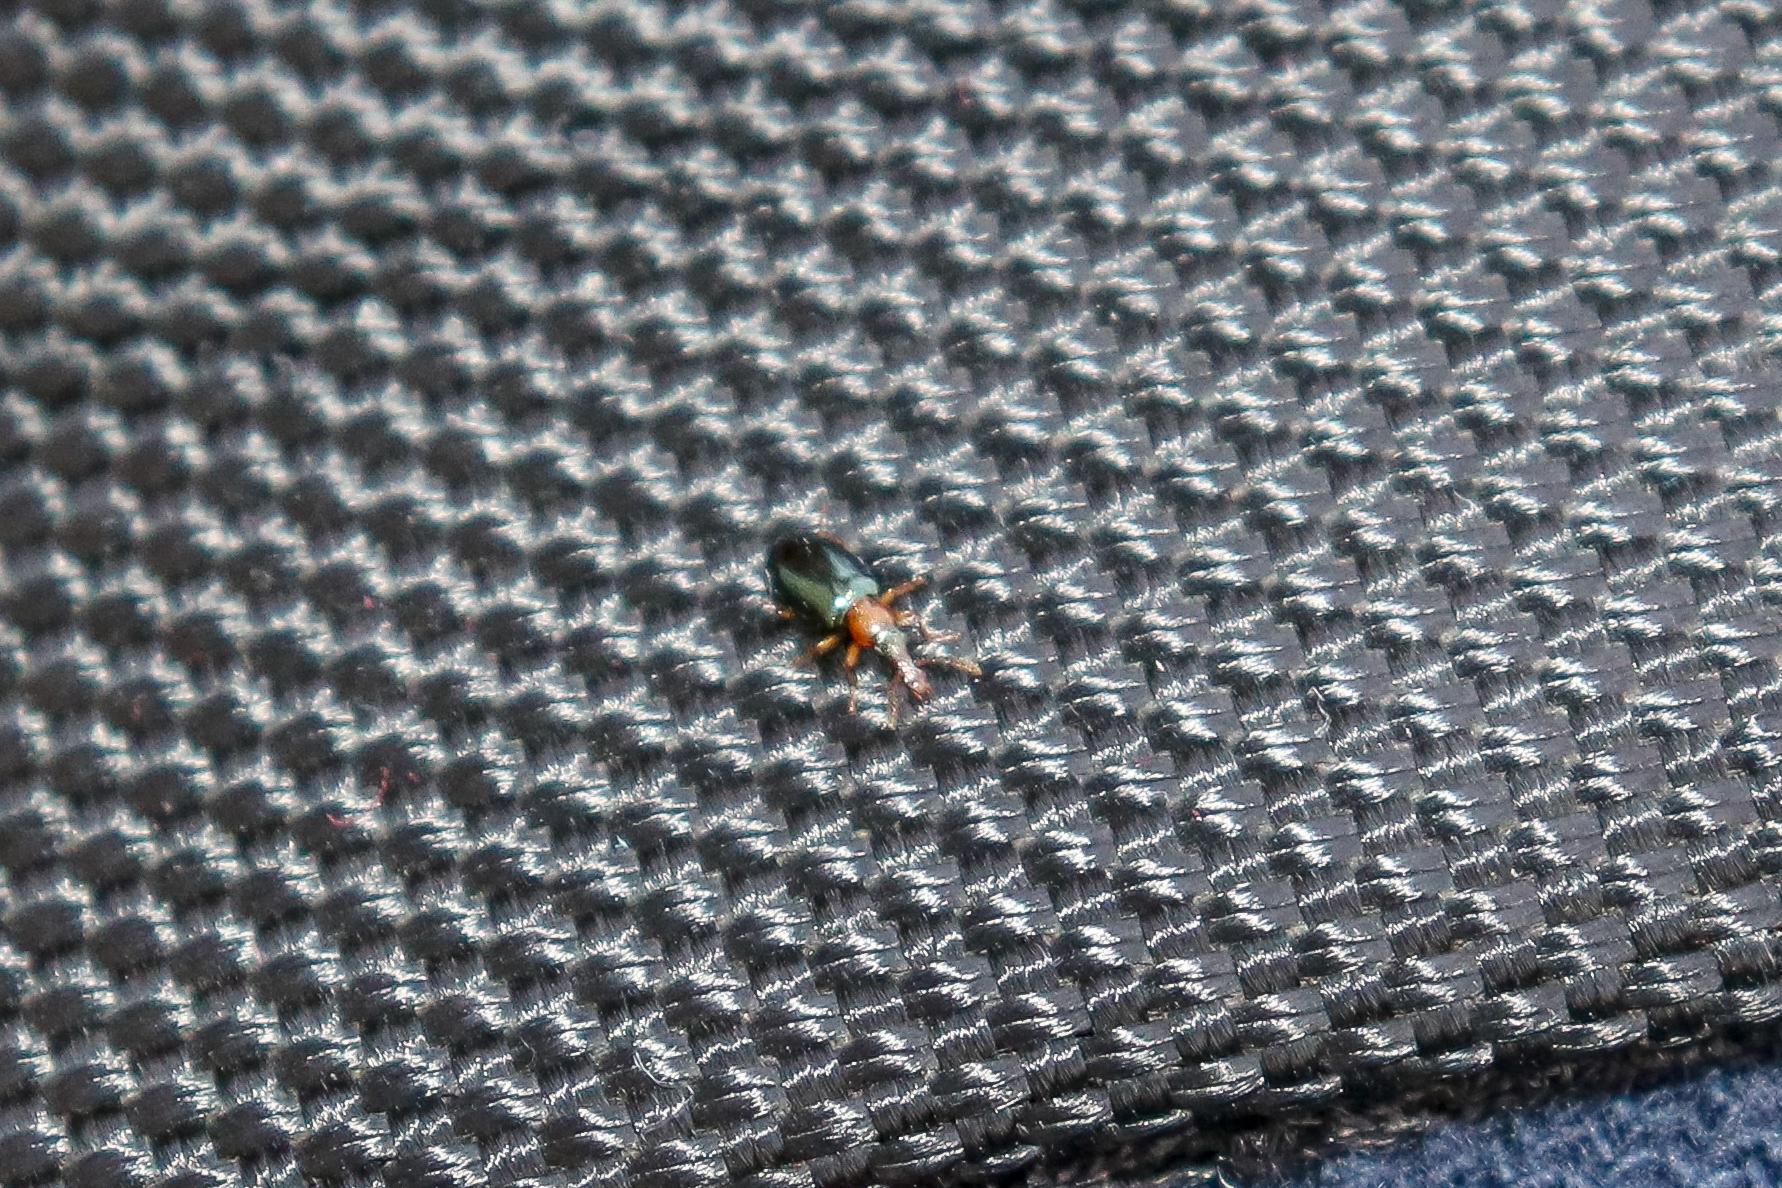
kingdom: Animalia
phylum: Arthropoda
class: Insecta
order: Coleoptera
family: Salpingidae
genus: Salpingus
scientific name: Salpingus ruficollis
